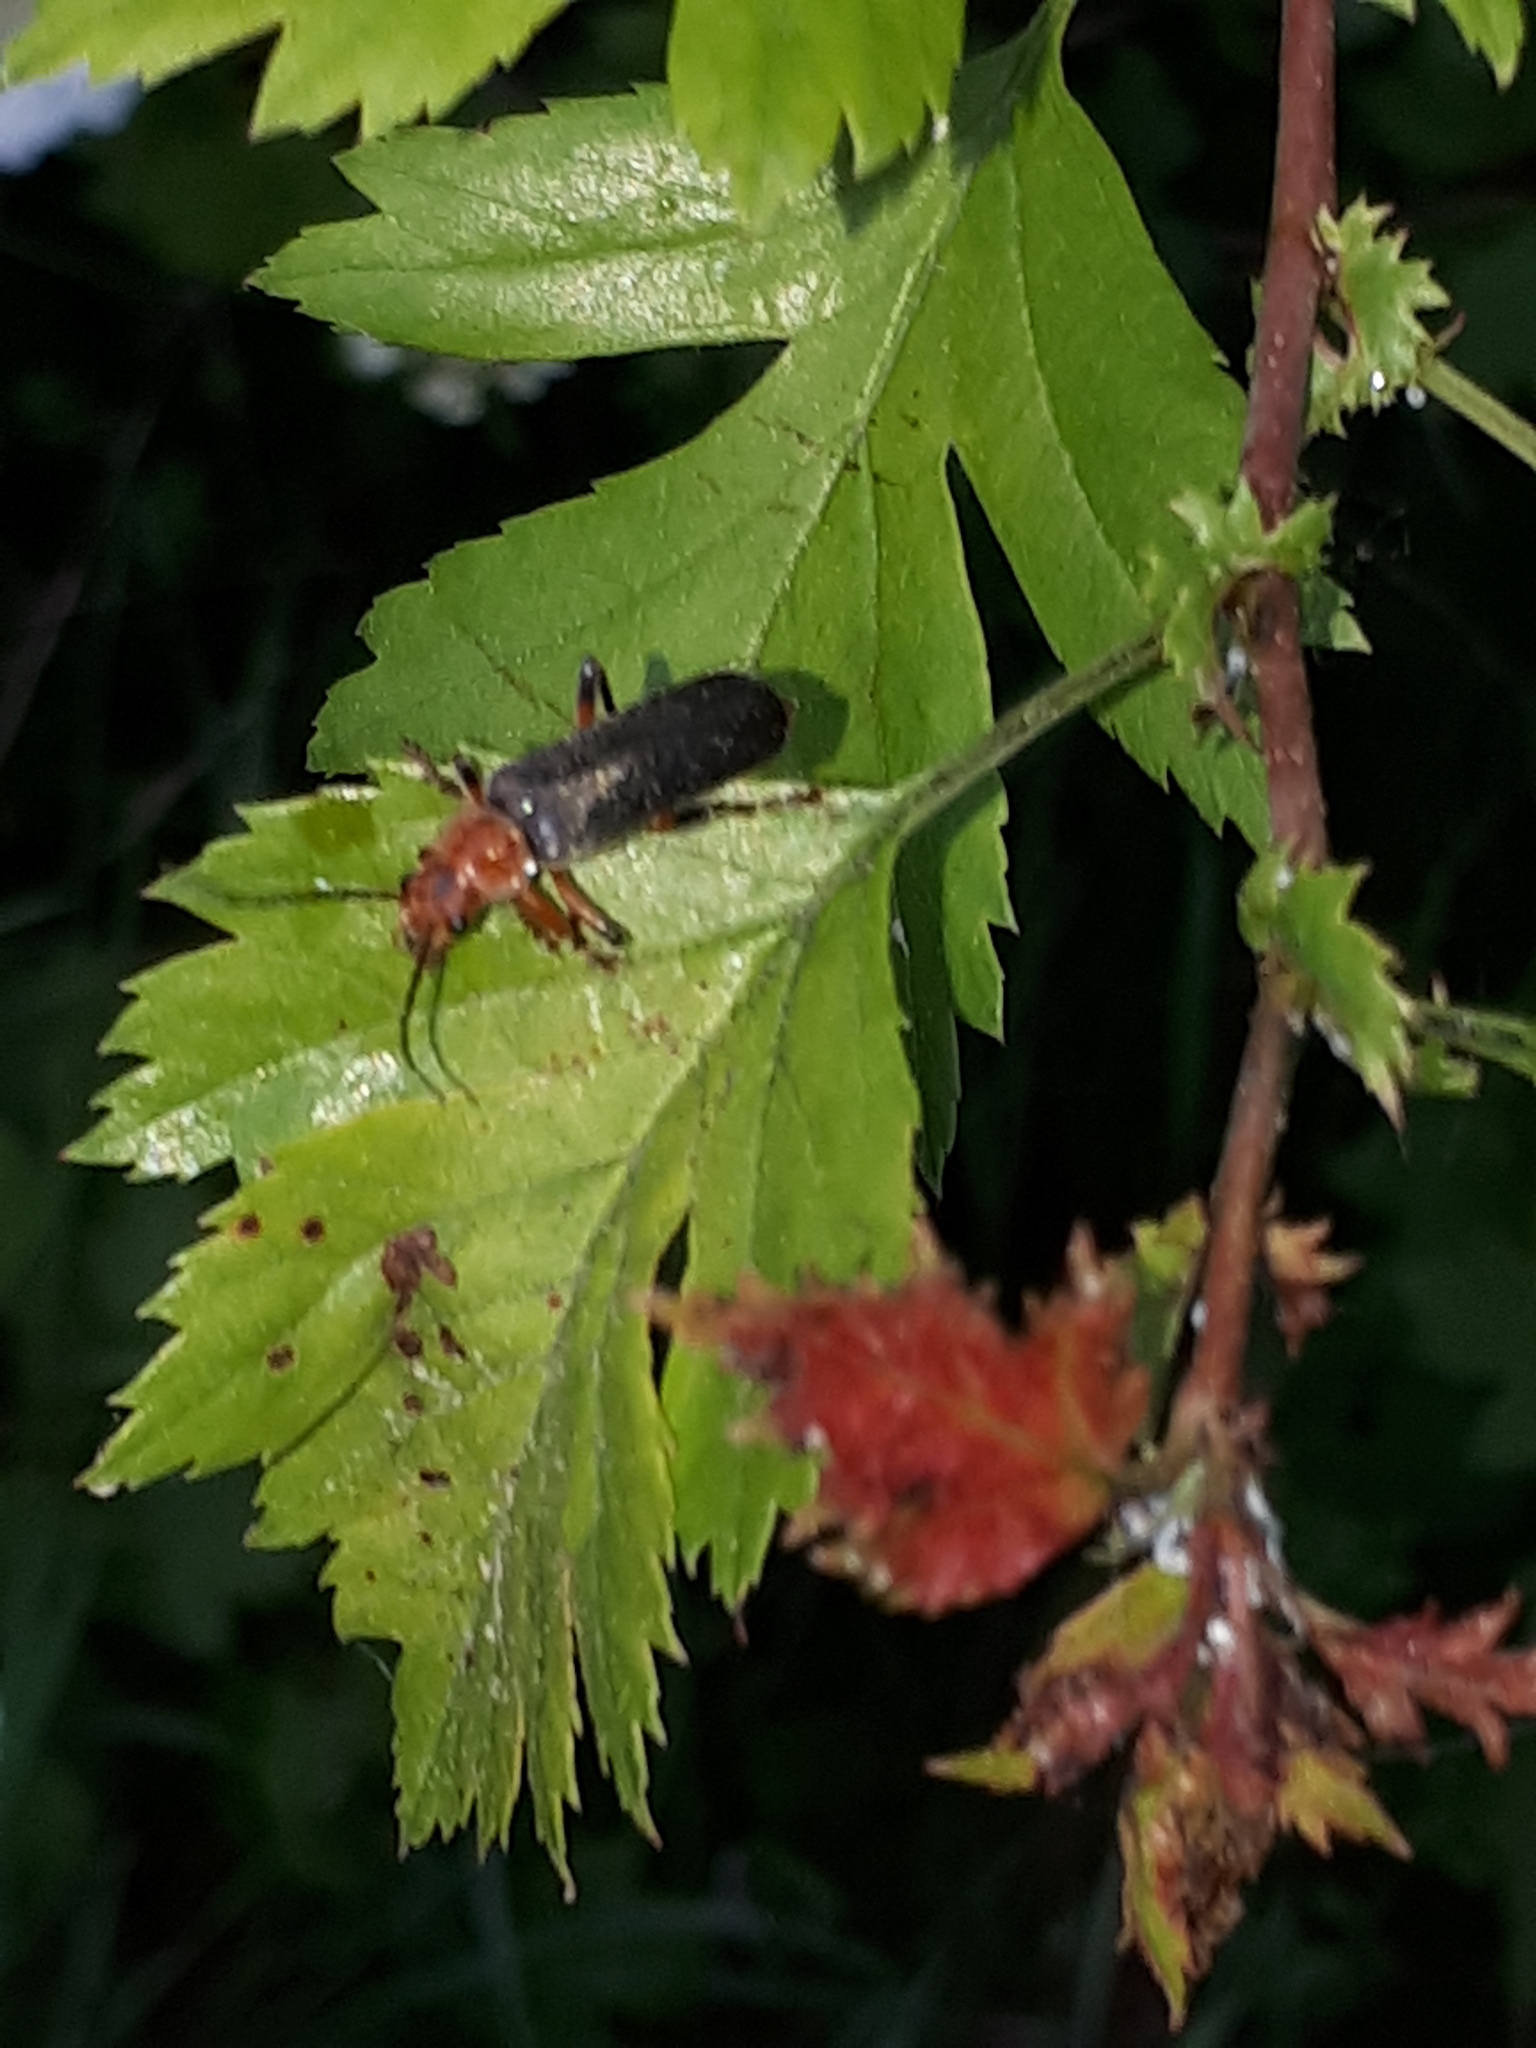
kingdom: Animalia
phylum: Arthropoda
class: Insecta
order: Coleoptera
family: Cantharidae
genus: Cantharis
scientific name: Cantharis livida
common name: Livid soldier beetle
